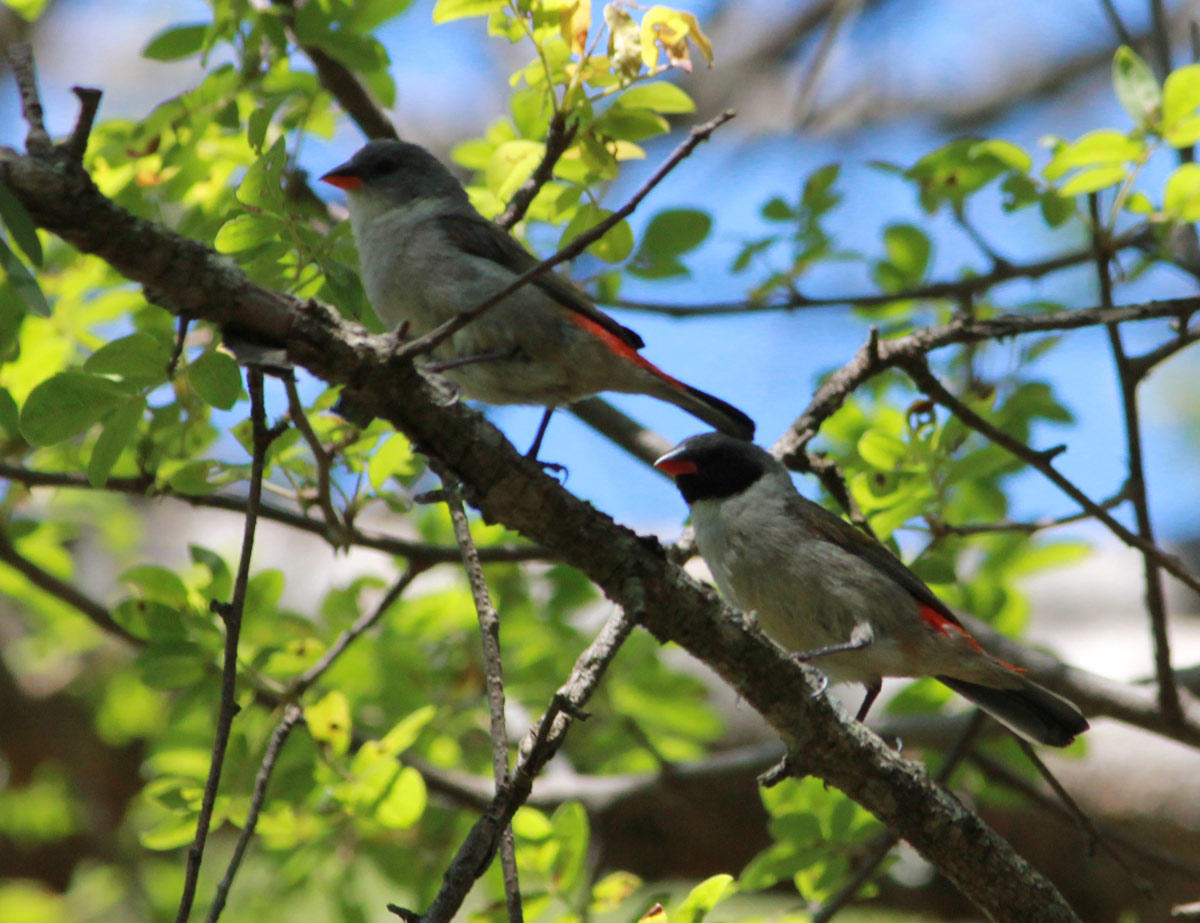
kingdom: Animalia
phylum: Chordata
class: Aves
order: Passeriformes
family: Estrildidae
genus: Coccopygia
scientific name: Coccopygia melanotis
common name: Swee waxbill
